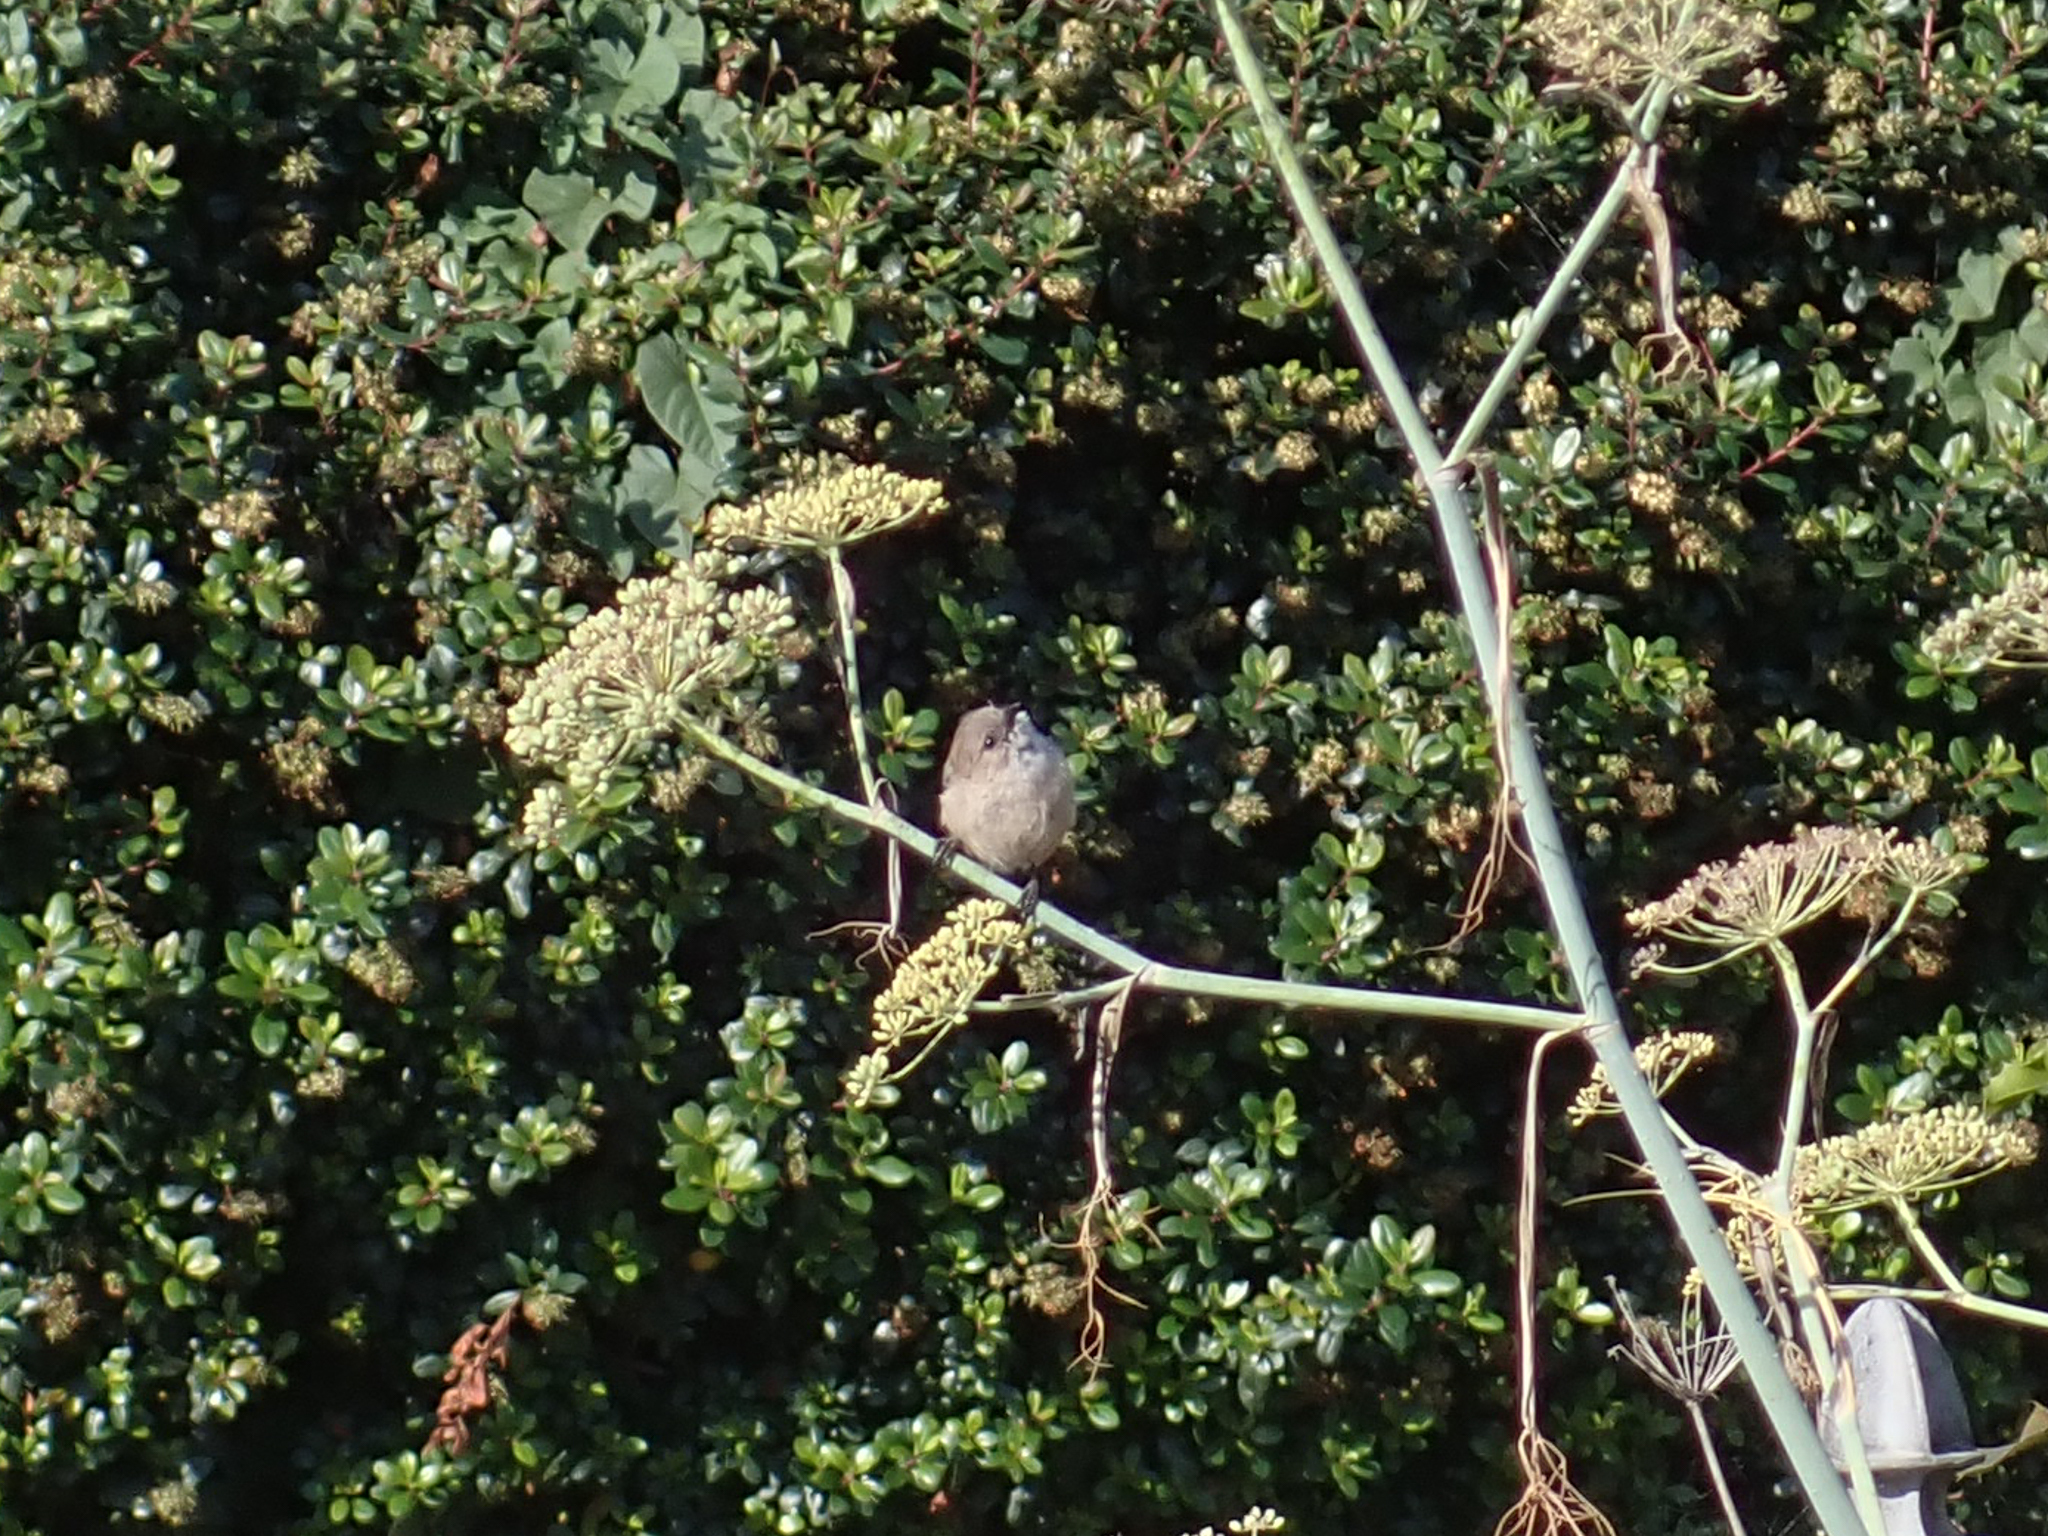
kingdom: Animalia
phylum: Chordata
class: Aves
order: Passeriformes
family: Aegithalidae
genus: Psaltriparus
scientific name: Psaltriparus minimus
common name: American bushtit
